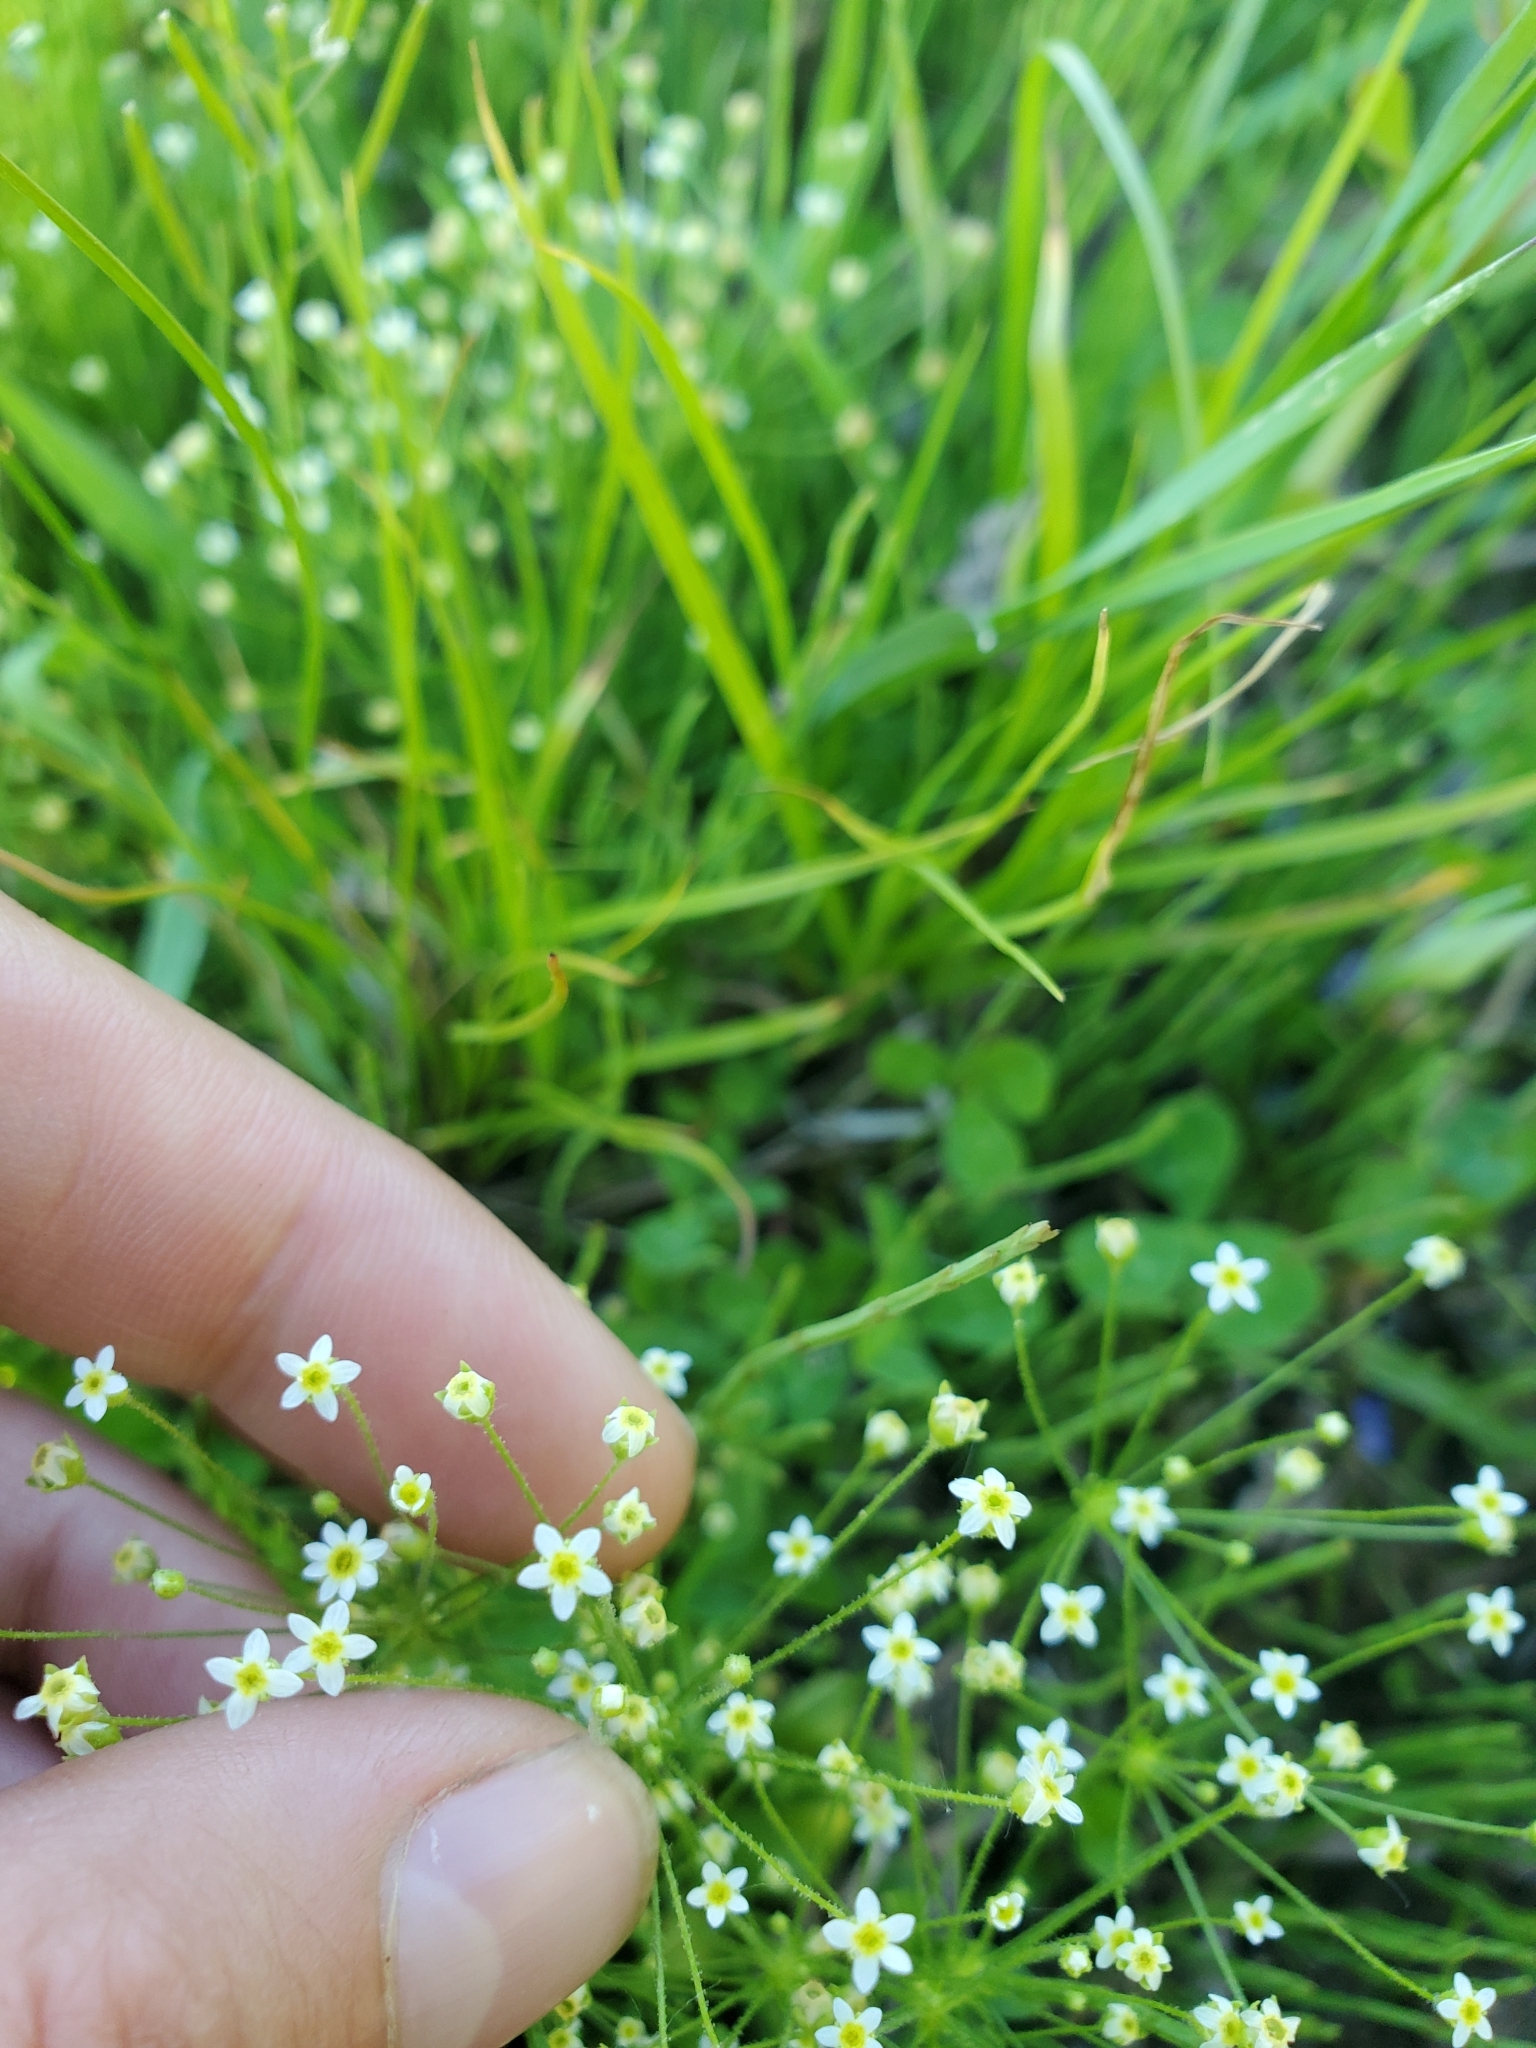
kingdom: Plantae
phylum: Tracheophyta
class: Magnoliopsida
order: Ericales
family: Primulaceae
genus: Androsace
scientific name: Androsace filiformis
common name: Filiform rock jasmine
